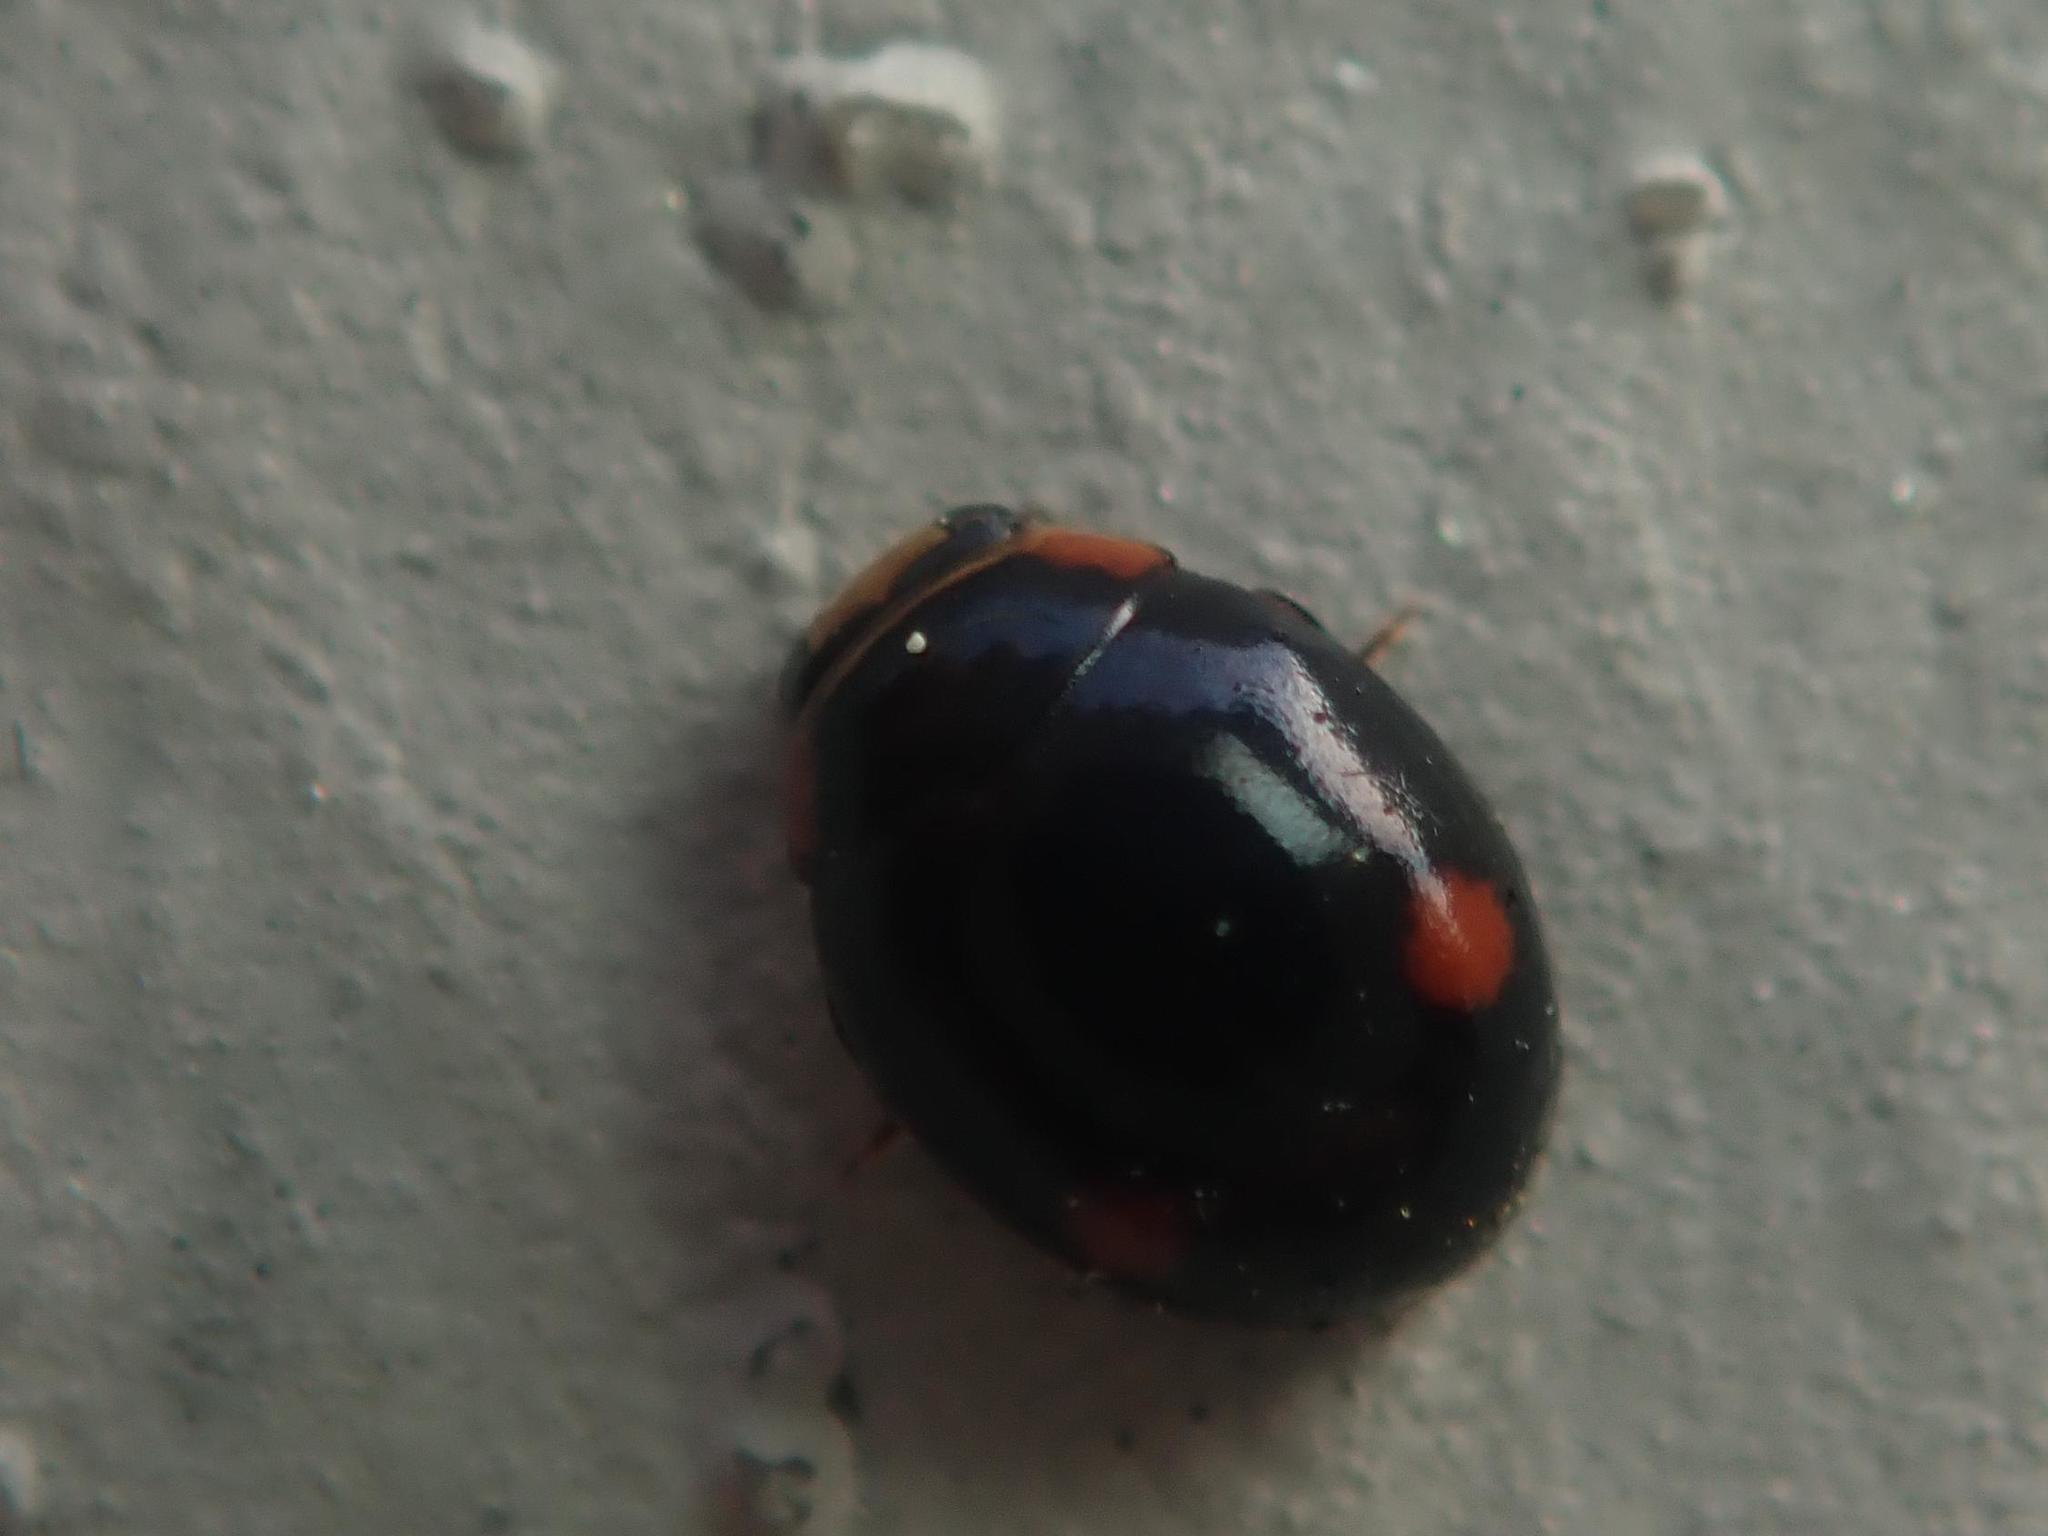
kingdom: Animalia
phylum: Arthropoda
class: Insecta
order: Coleoptera
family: Coccinellidae
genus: Hyperaspis
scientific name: Hyperaspis campestris
